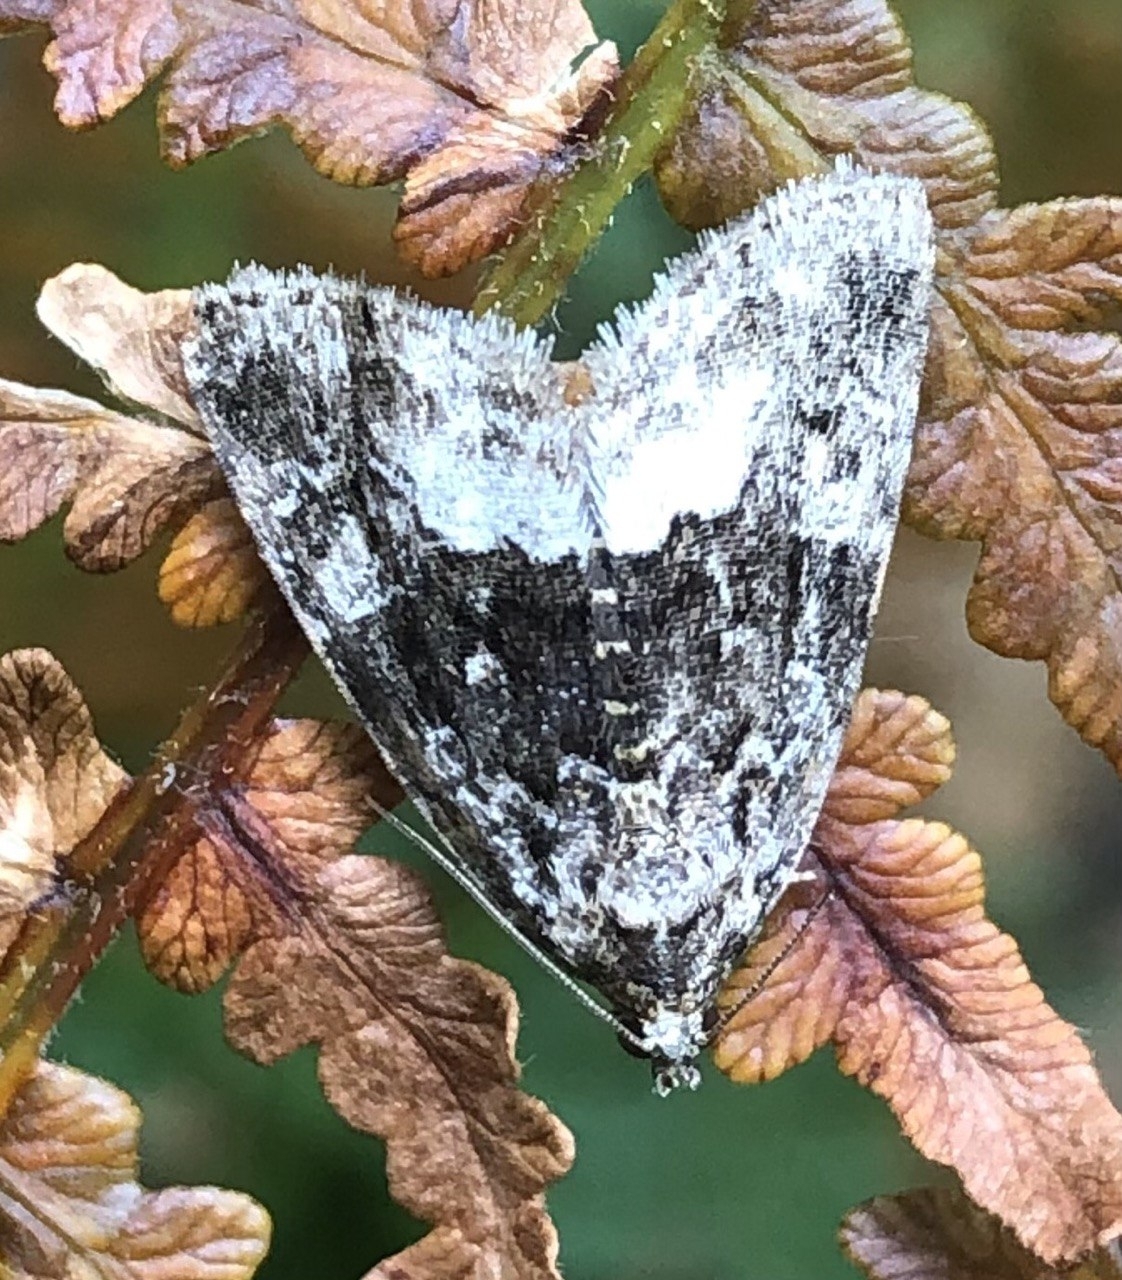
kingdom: Animalia
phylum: Arthropoda
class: Insecta
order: Lepidoptera
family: Noctuidae
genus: Deltote
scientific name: Deltote pygarga
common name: Marbled white spot
